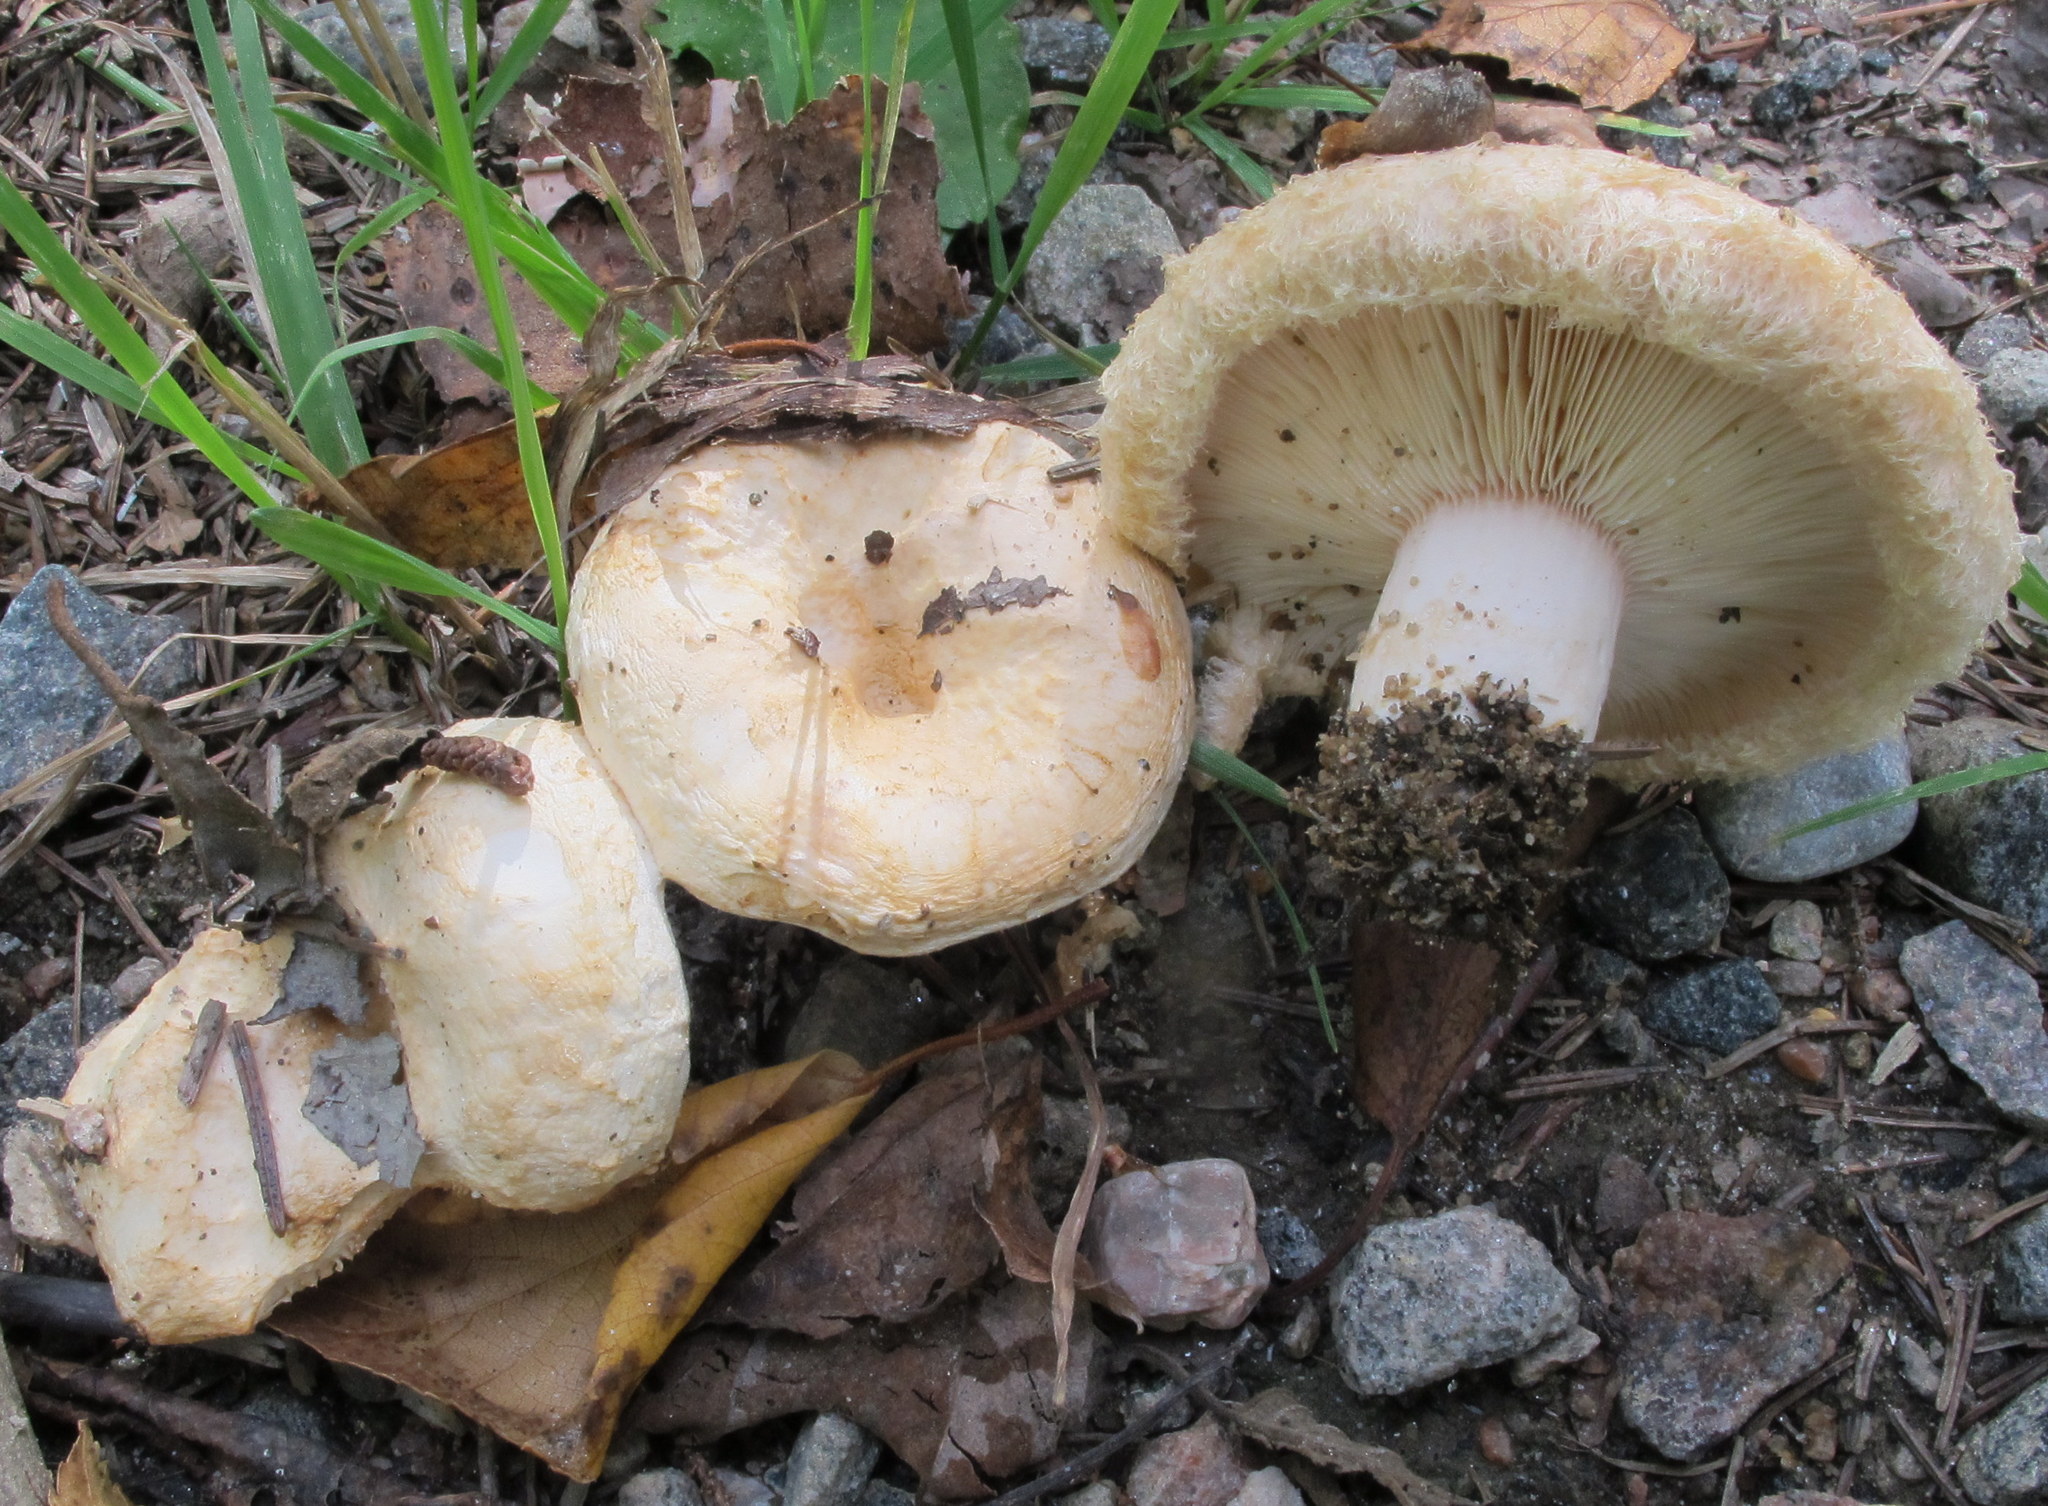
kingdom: Fungi
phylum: Basidiomycota
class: Agaricomycetes
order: Russulales
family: Russulaceae
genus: Lactarius
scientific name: Lactarius pubescens
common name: Bearded milkcap
